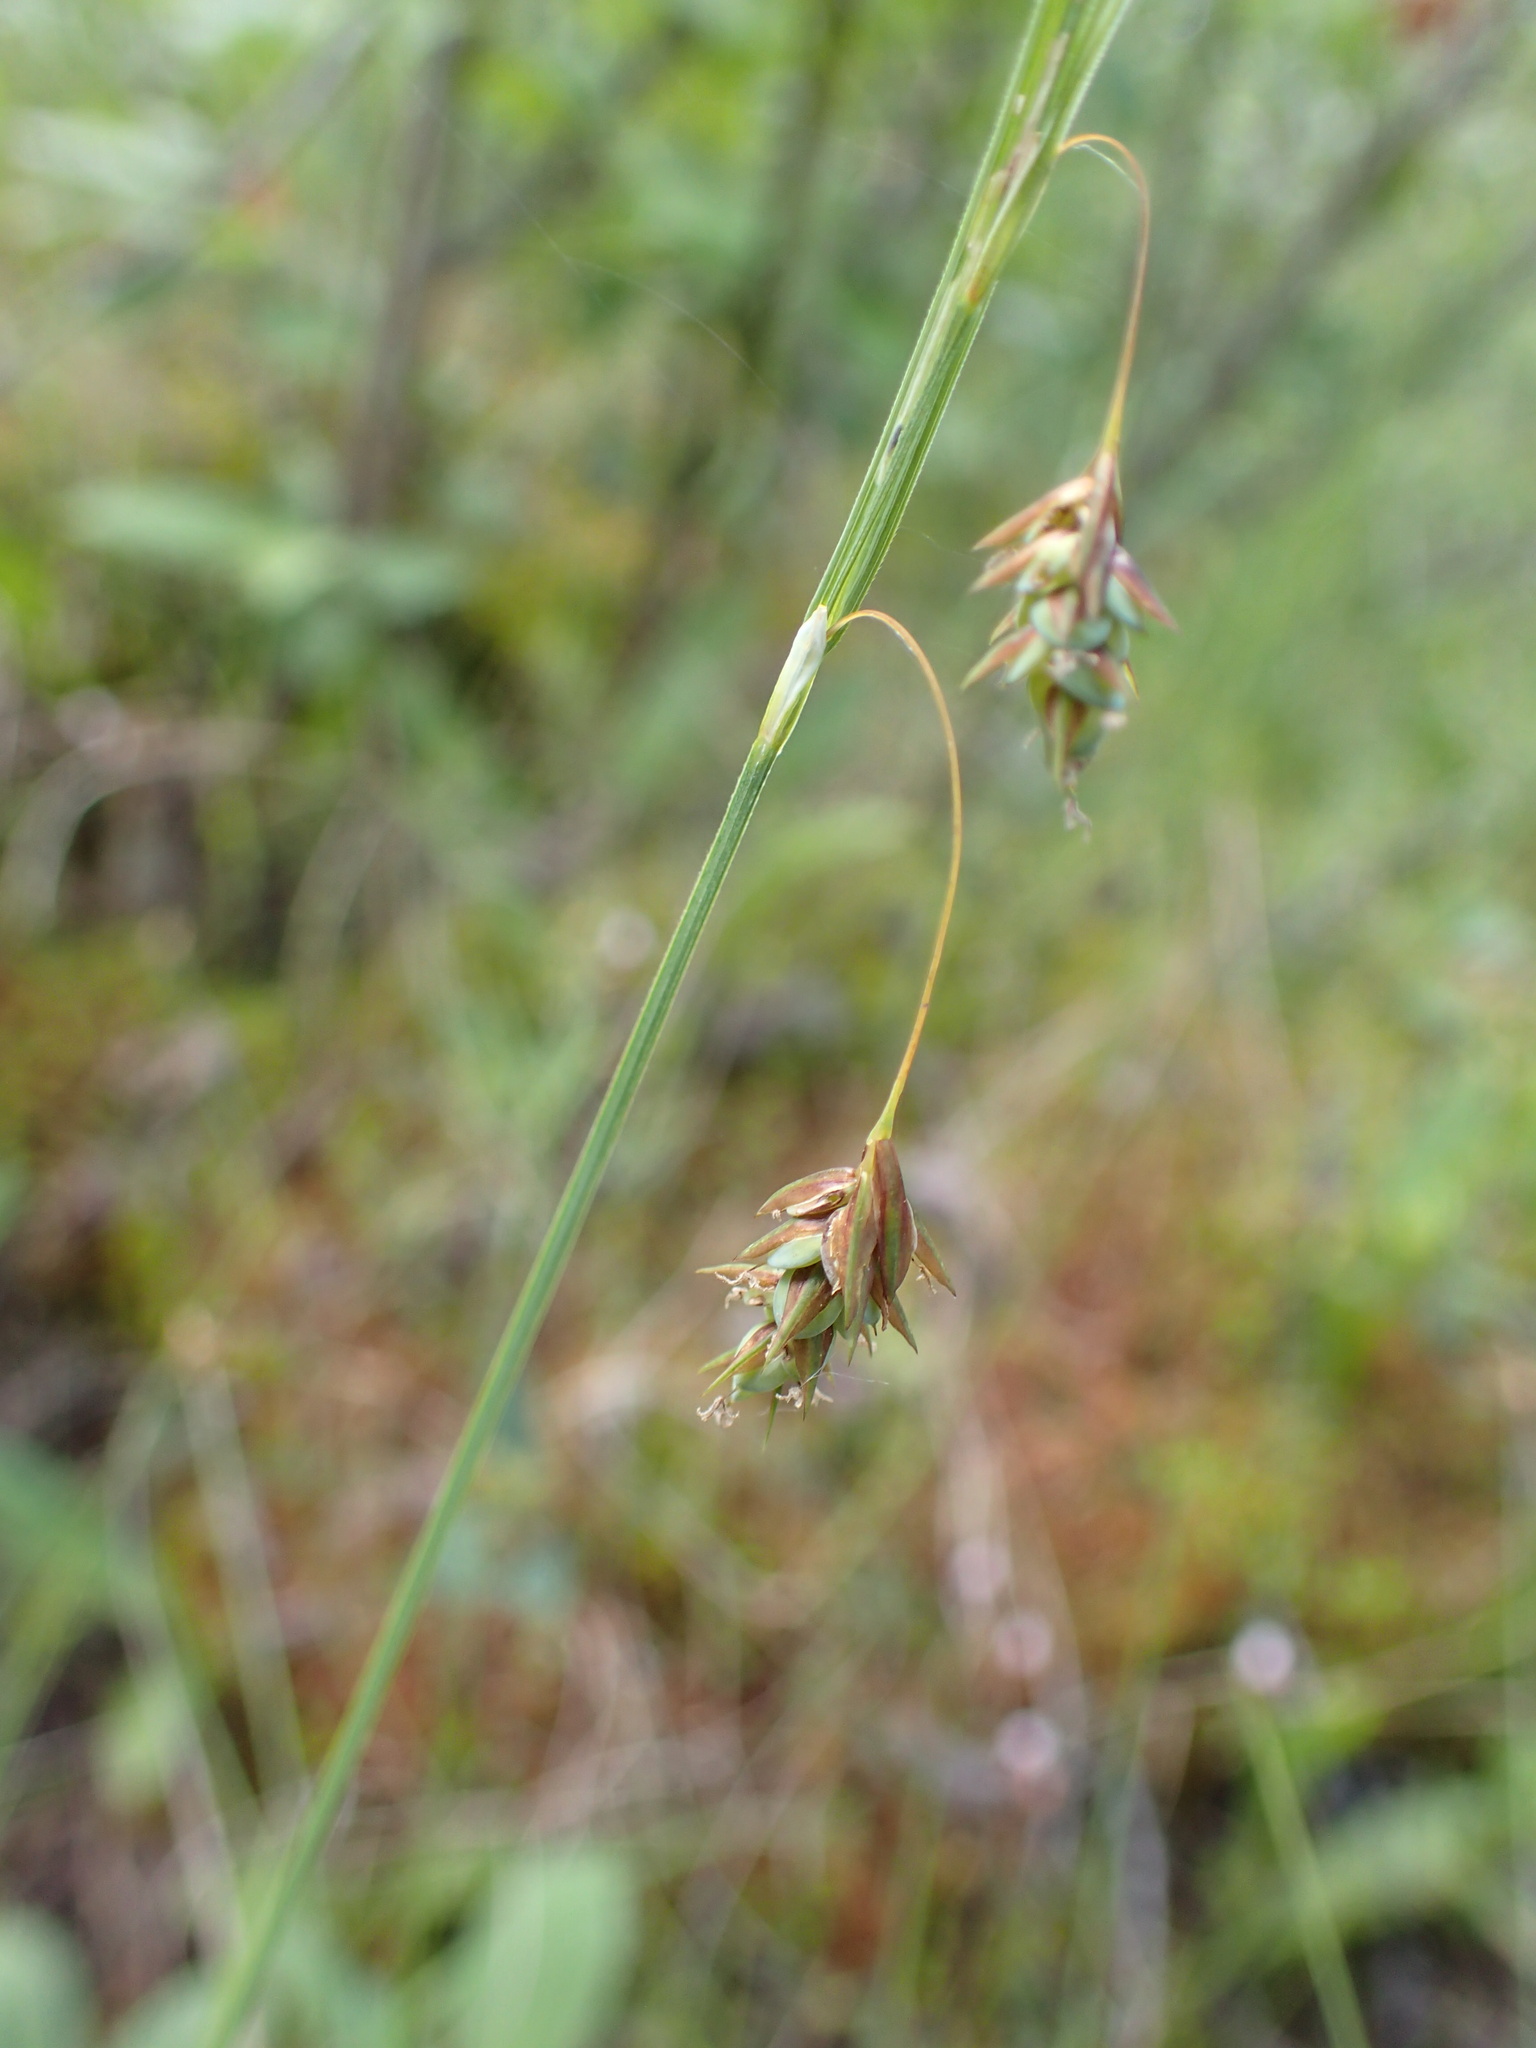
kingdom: Plantae
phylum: Tracheophyta
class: Liliopsida
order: Poales
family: Cyperaceae
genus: Carex
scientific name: Carex magellanica
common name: Bog sedge
